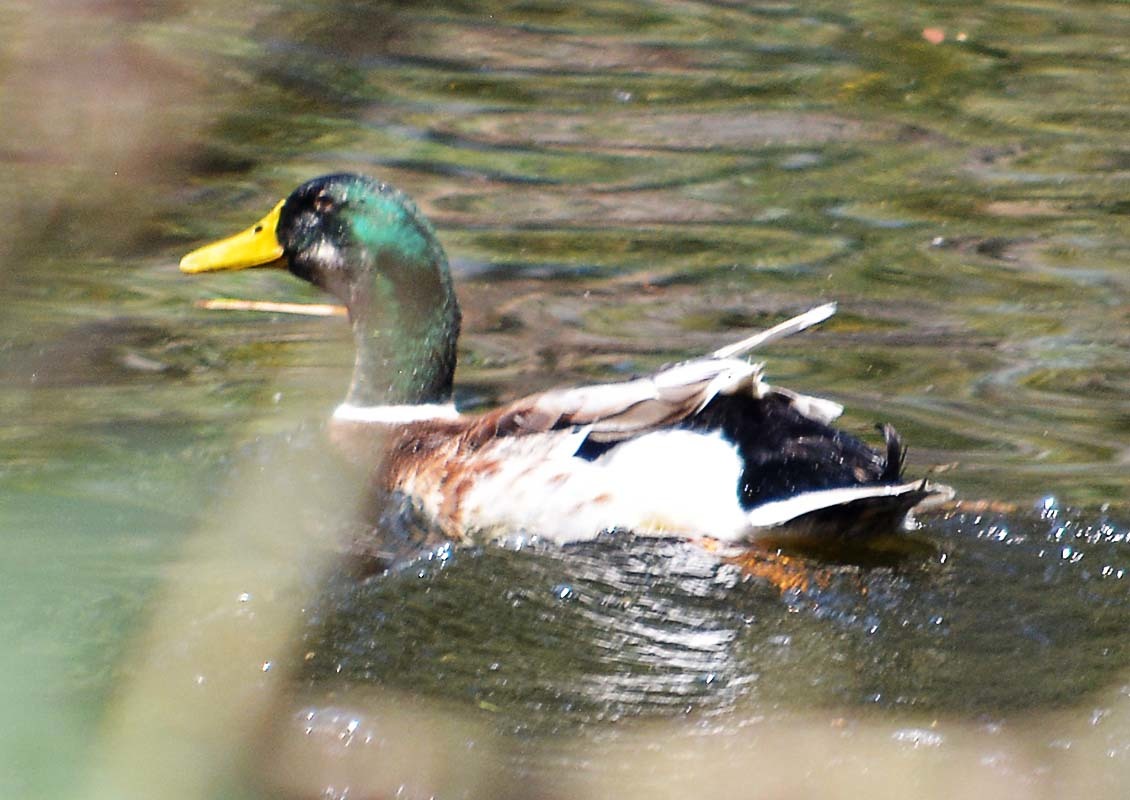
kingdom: Animalia
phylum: Chordata
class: Aves
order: Anseriformes
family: Anatidae
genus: Anas
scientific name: Anas platyrhynchos
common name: Mallard
